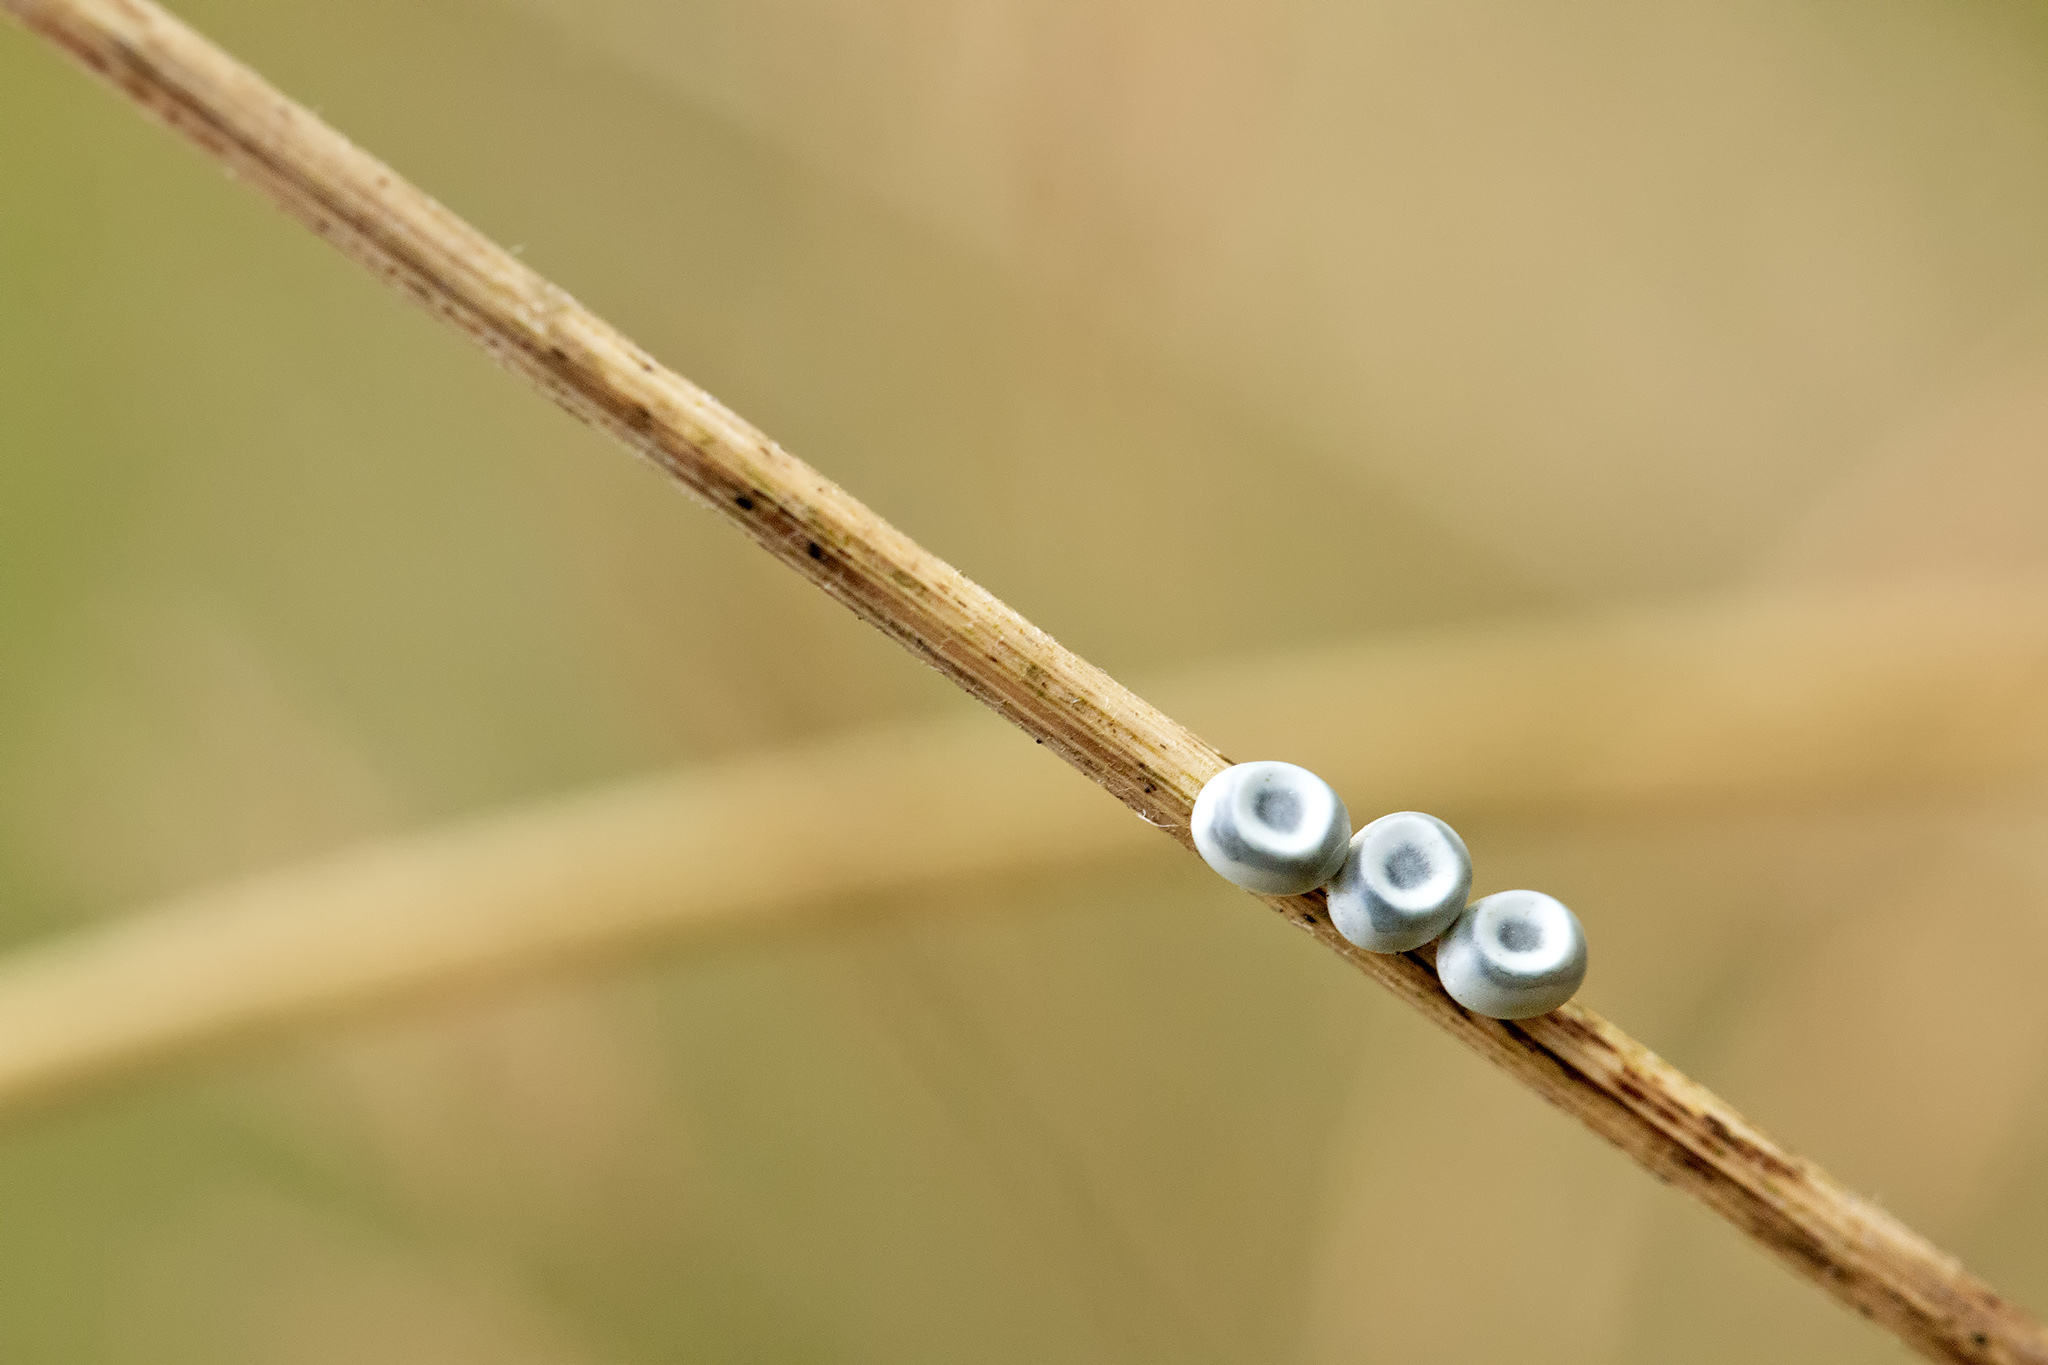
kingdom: Animalia
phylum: Arthropoda
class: Insecta
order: Lepidoptera
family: Lasiocampidae
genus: Euthrix
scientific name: Euthrix potatoria
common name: Drinker
